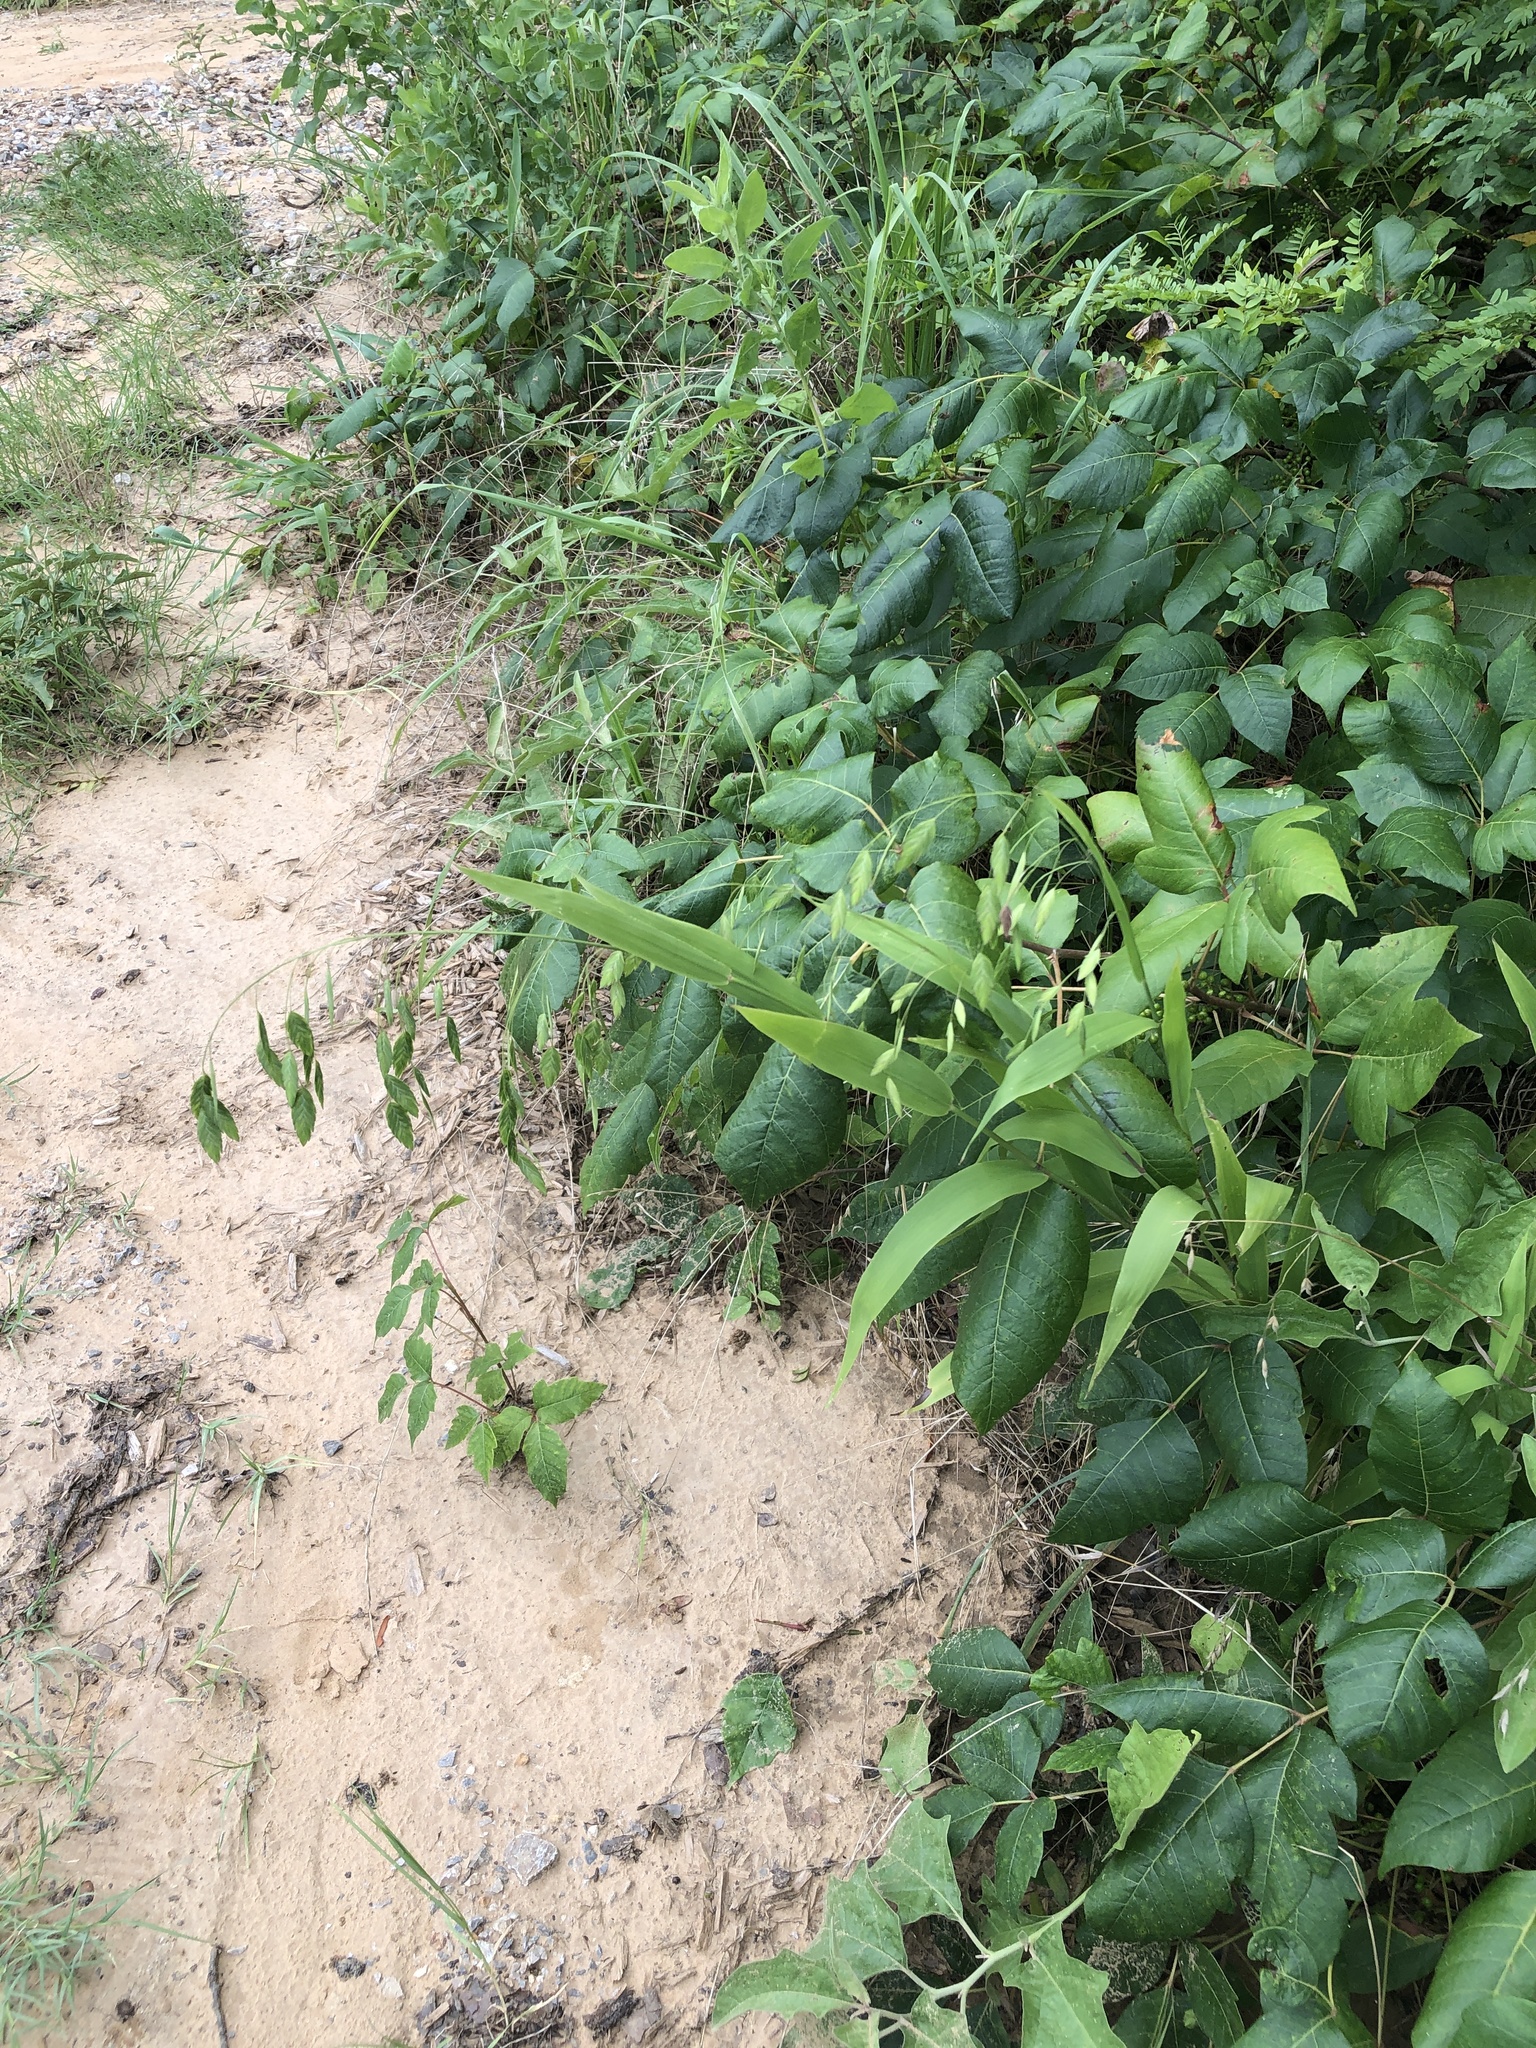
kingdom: Plantae
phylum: Tracheophyta
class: Liliopsida
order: Poales
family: Poaceae
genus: Chasmanthium
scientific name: Chasmanthium latifolium
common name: Broad-leaved chasmanthium
